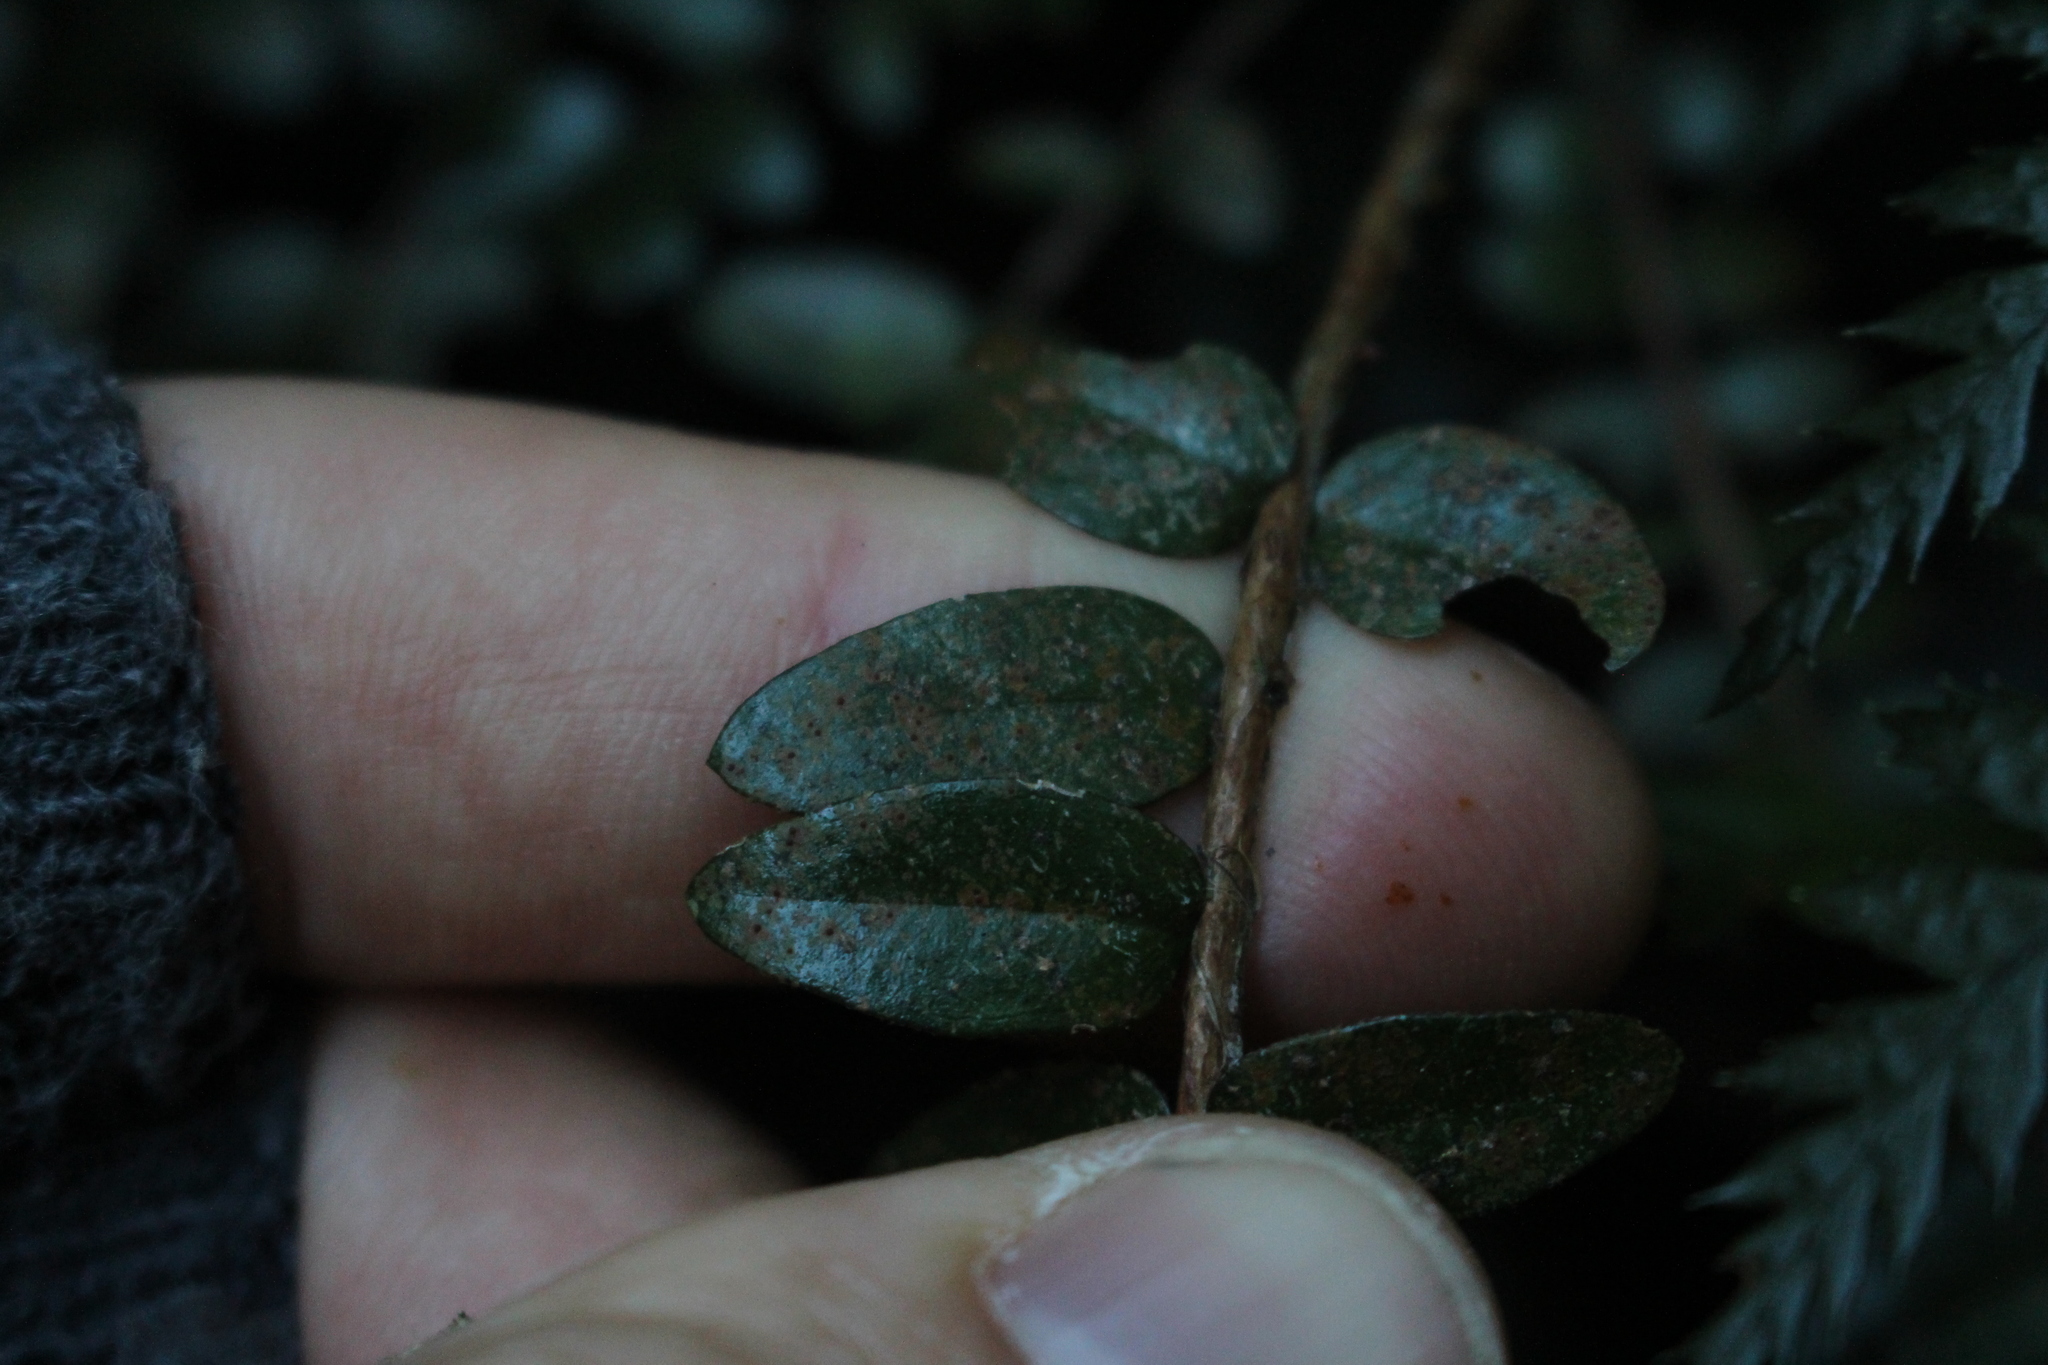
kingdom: Plantae
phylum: Tracheophyta
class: Magnoliopsida
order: Myrtales
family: Myrtaceae
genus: Metrosideros
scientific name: Metrosideros diffusa
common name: Small ratavine
